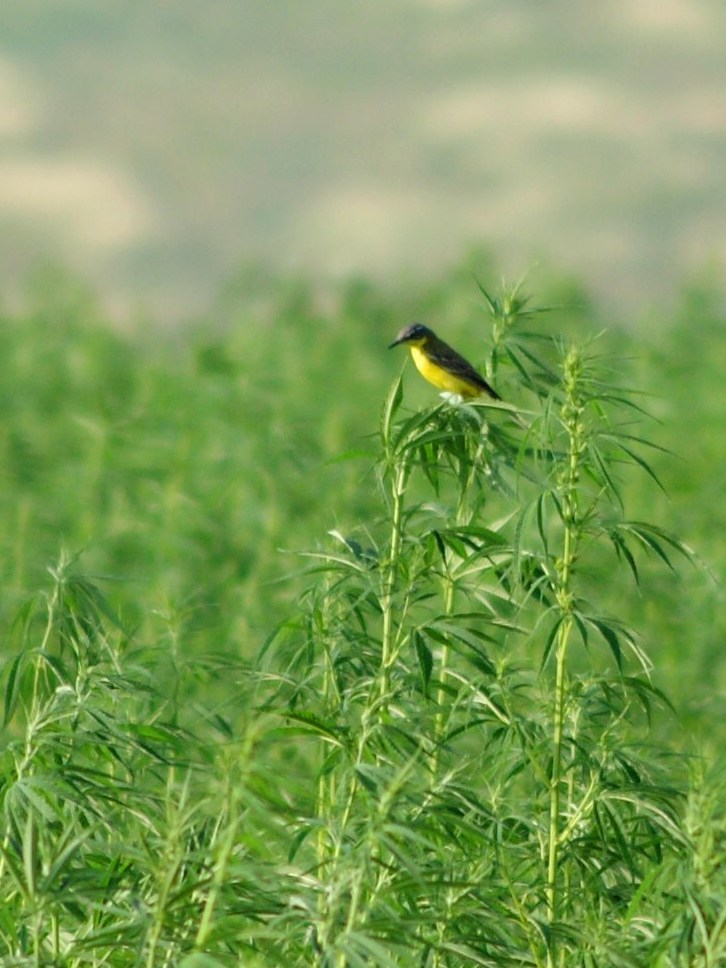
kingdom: Animalia
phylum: Chordata
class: Aves
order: Passeriformes
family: Motacillidae
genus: Motacilla
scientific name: Motacilla flava
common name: Western yellow wagtail
